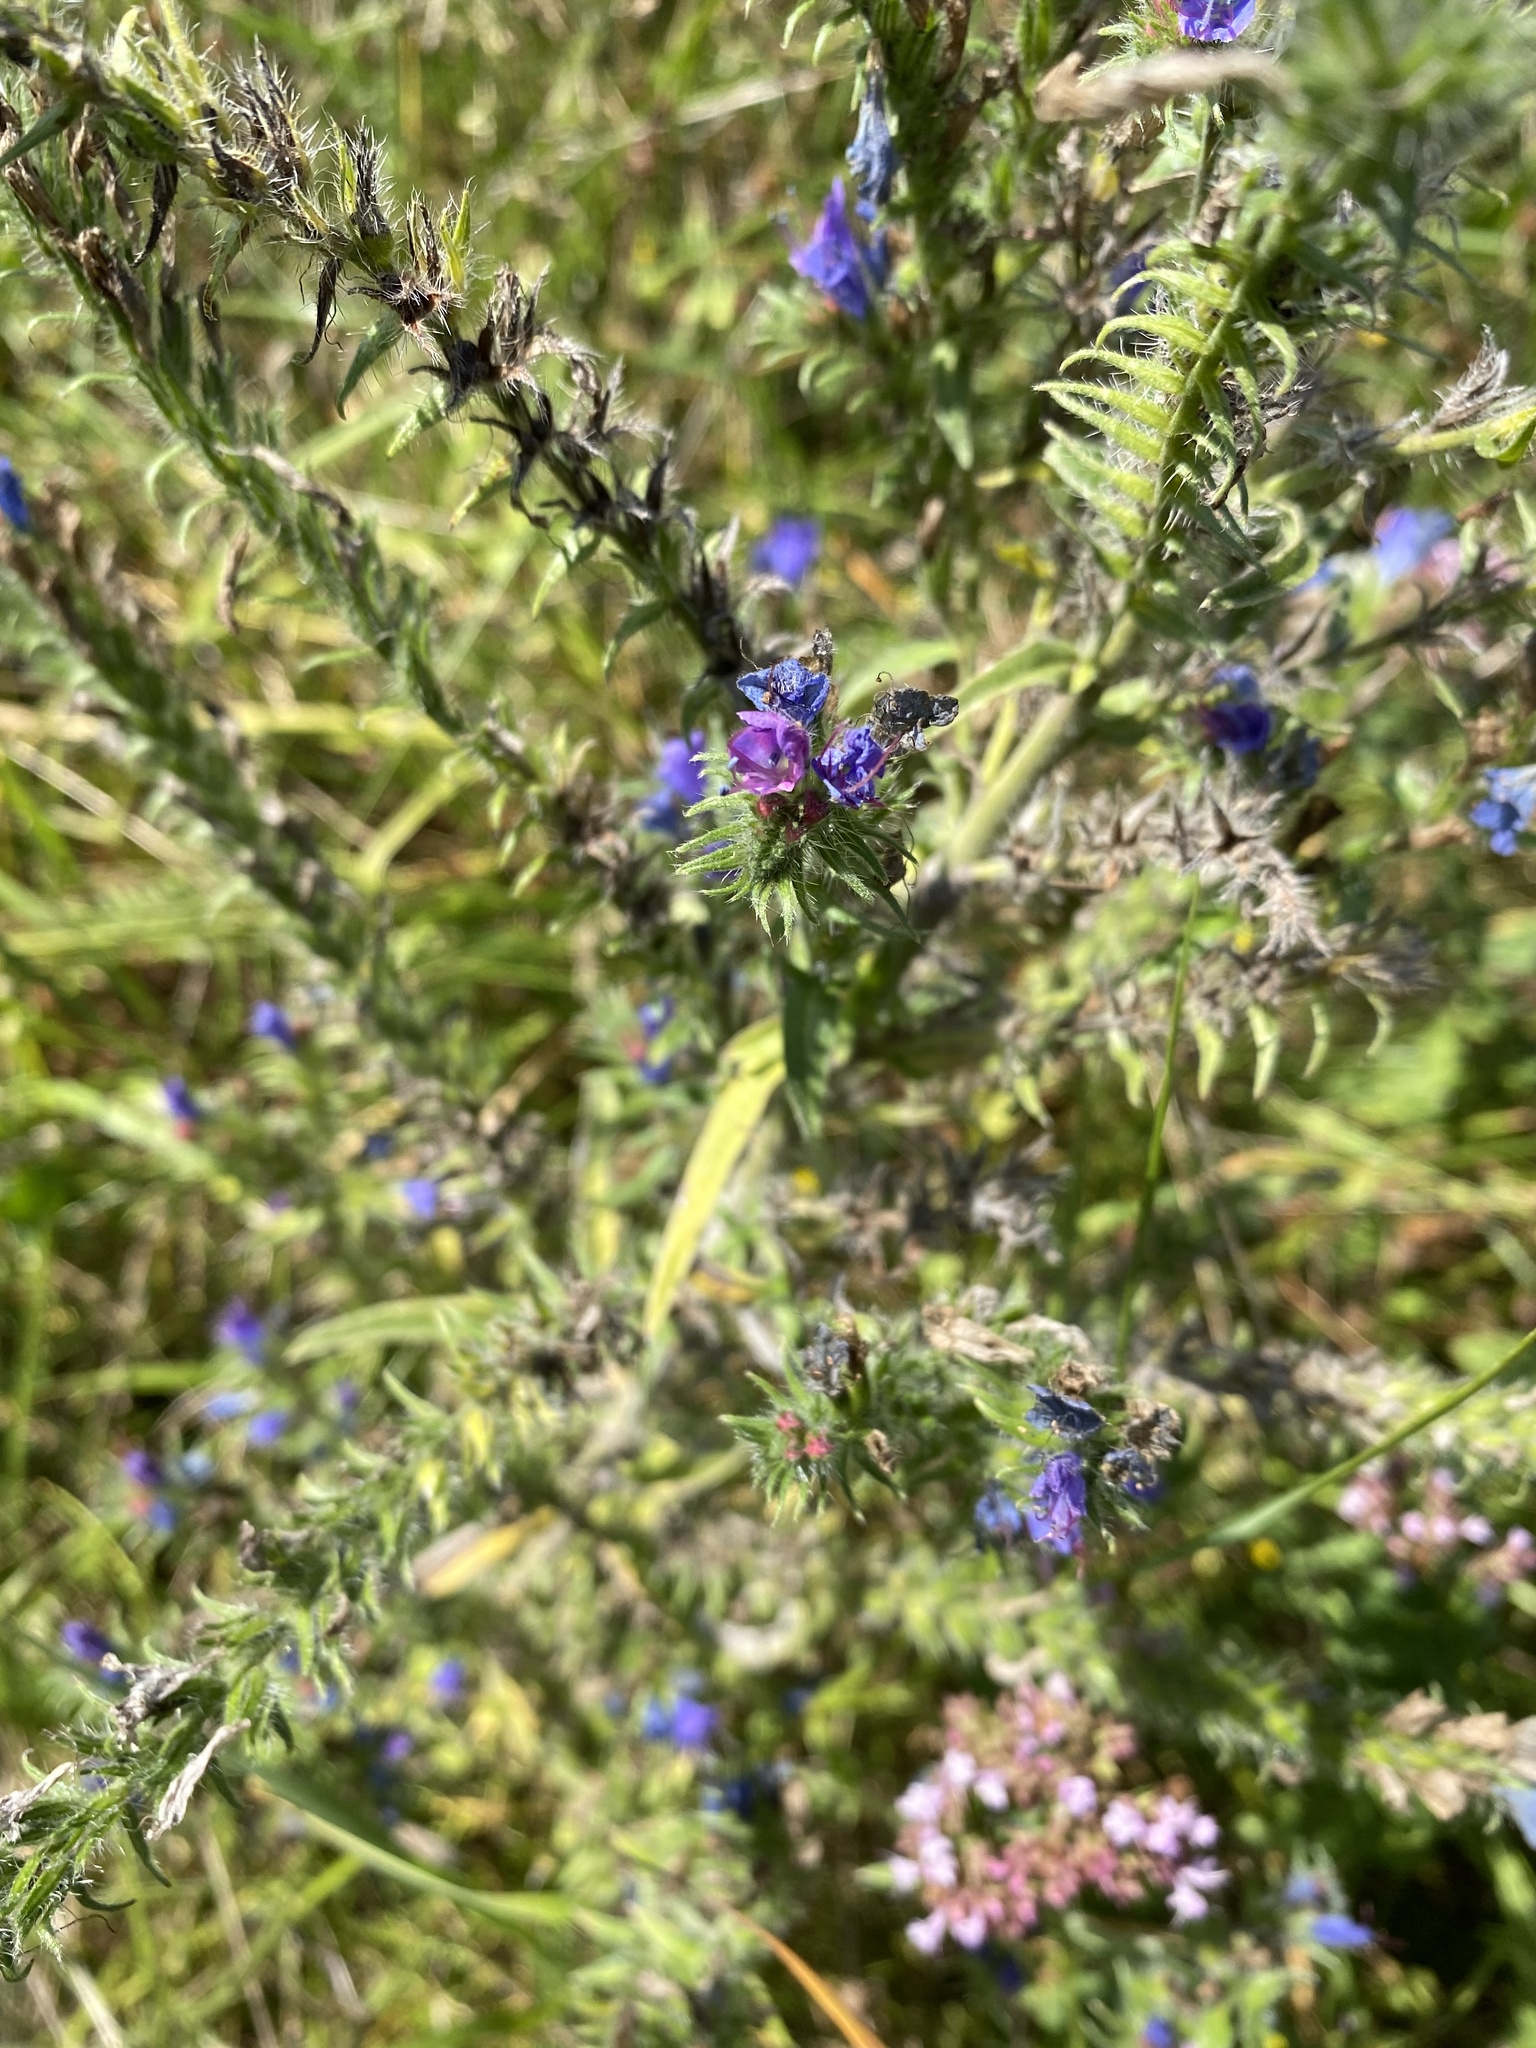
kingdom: Plantae
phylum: Tracheophyta
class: Magnoliopsida
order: Boraginales
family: Boraginaceae
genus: Echium
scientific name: Echium vulgare
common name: Common viper's bugloss
